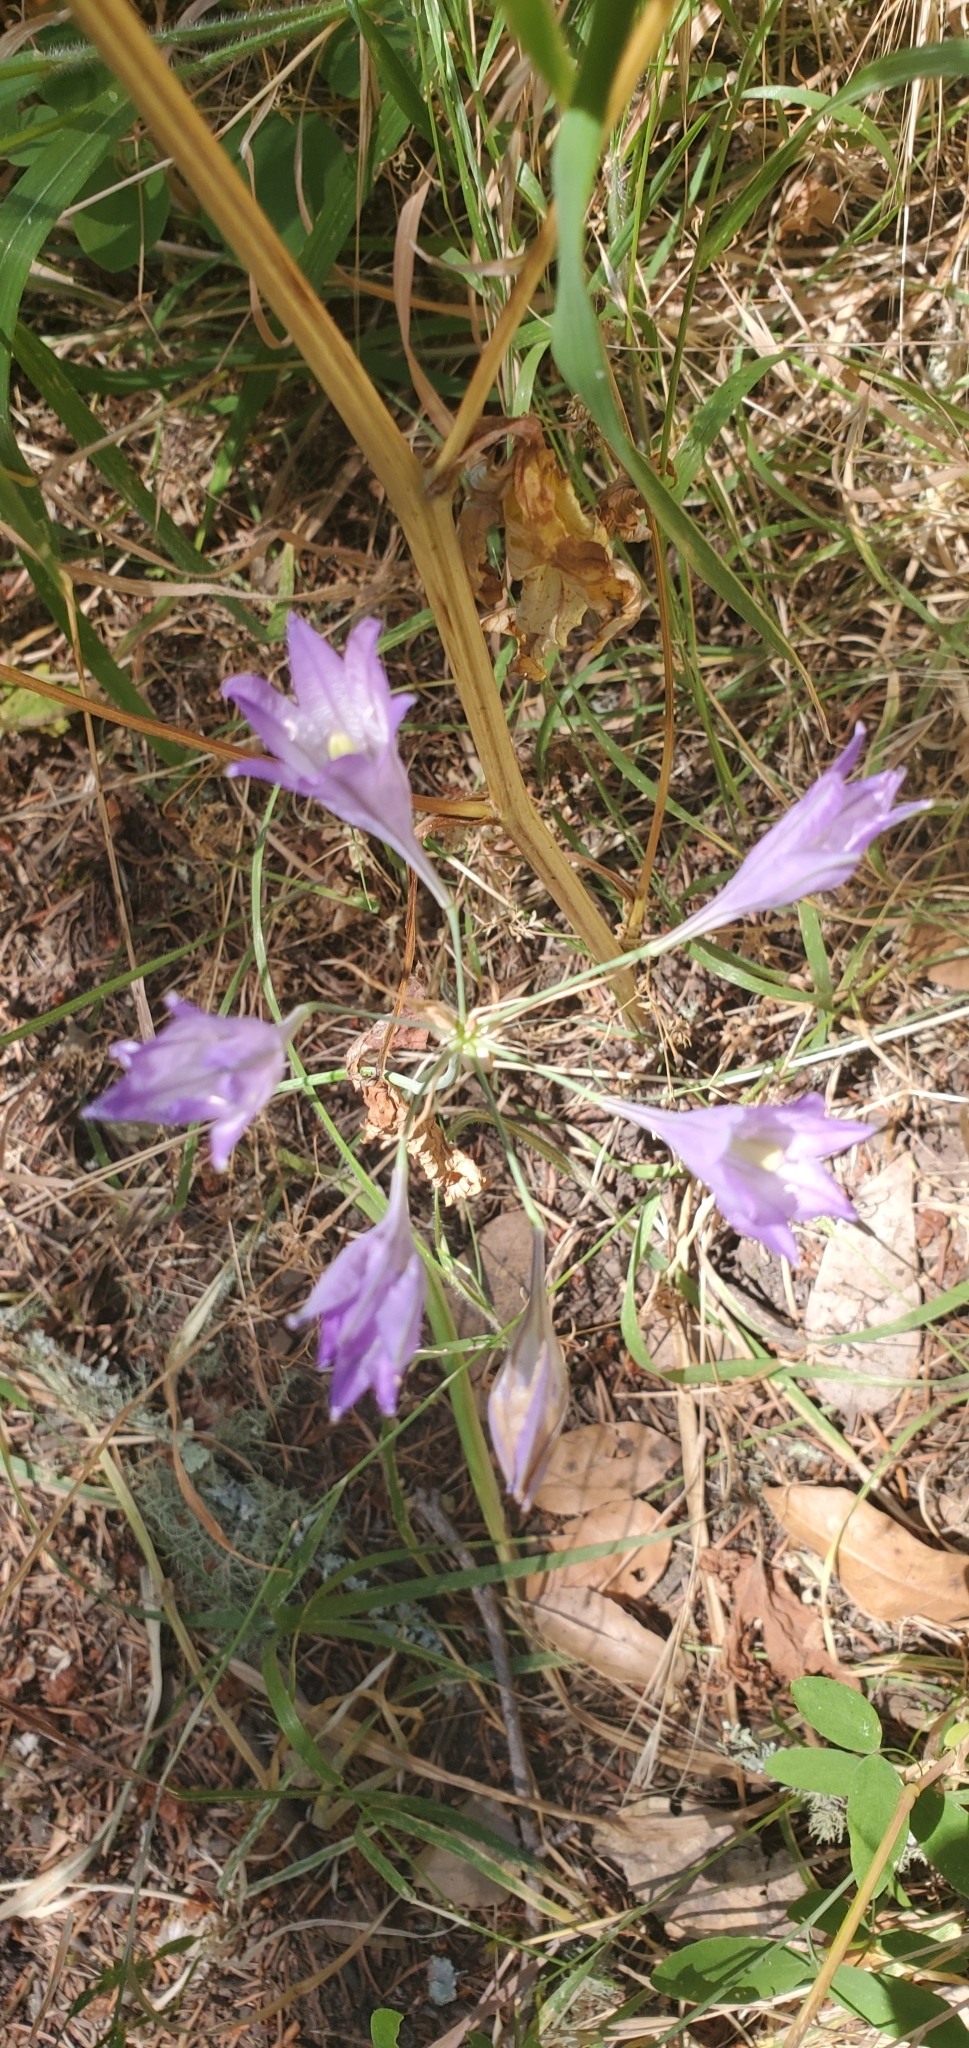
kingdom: Plantae
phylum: Tracheophyta
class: Liliopsida
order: Asparagales
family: Asparagaceae
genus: Triteleia
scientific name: Triteleia laxa
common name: Triplet-lily
